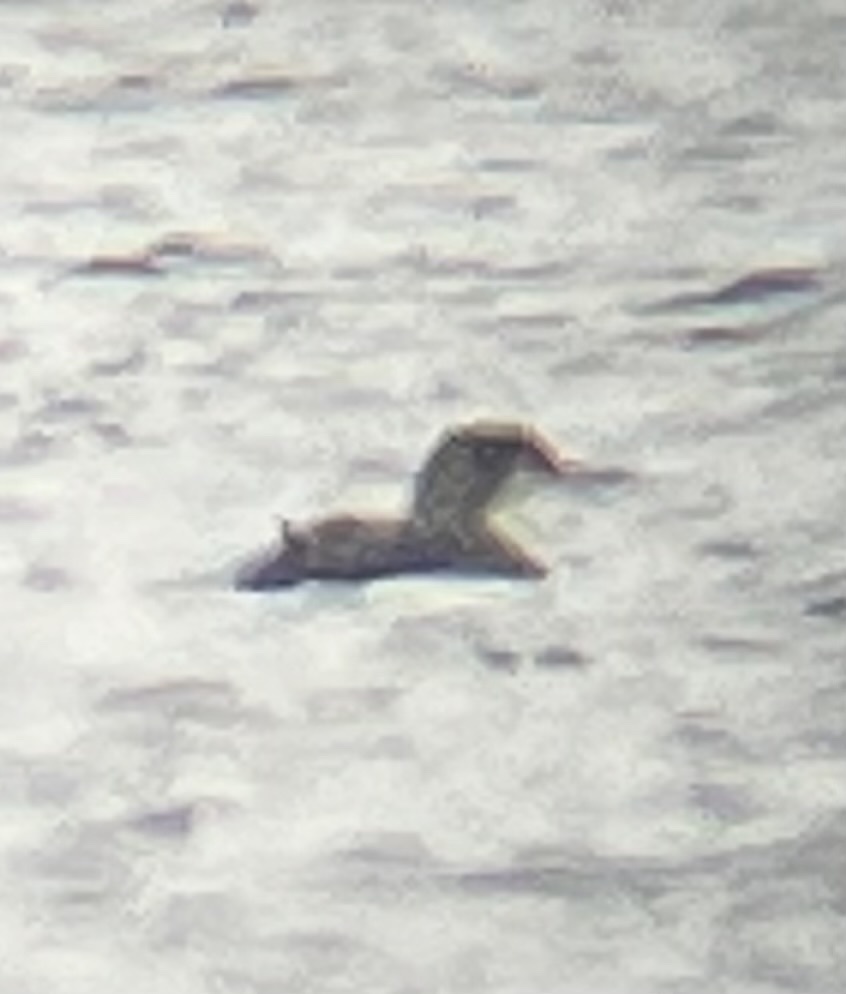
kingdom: Animalia
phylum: Chordata
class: Aves
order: Gaviiformes
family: Gaviidae
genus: Gavia
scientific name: Gavia immer
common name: Common loon
